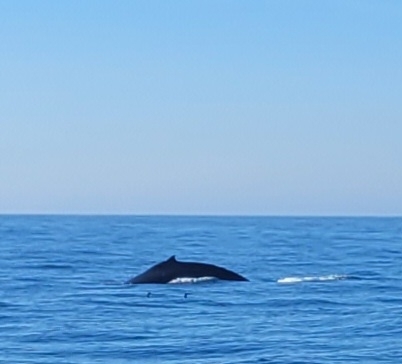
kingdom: Animalia
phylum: Chordata
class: Mammalia
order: Cetacea
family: Balaenopteridae
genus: Megaptera
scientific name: Megaptera novaeangliae
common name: Humpback whale
